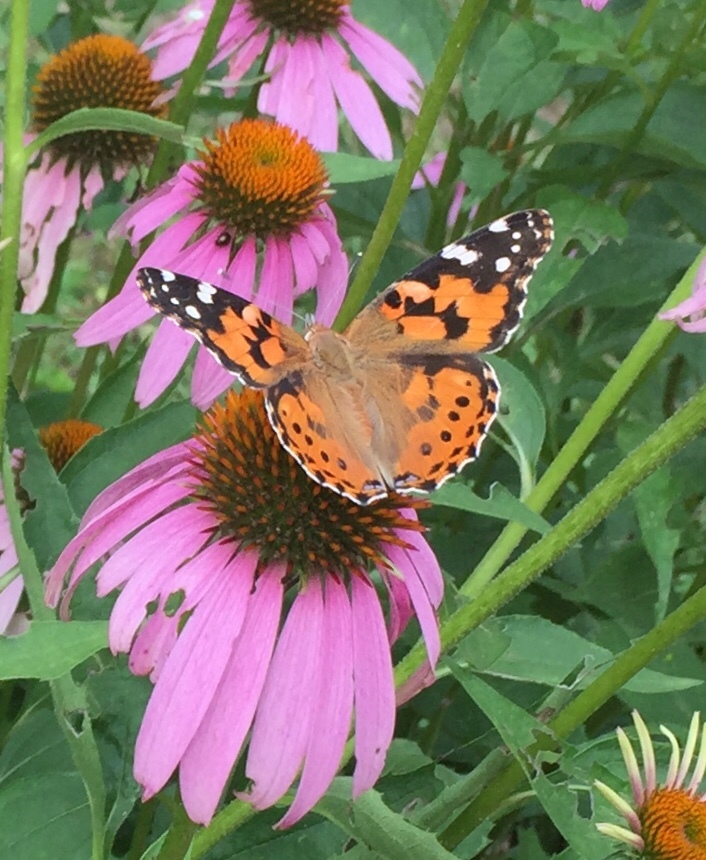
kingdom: Animalia
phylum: Arthropoda
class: Insecta
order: Lepidoptera
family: Nymphalidae
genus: Vanessa
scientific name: Vanessa cardui
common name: Painted lady
